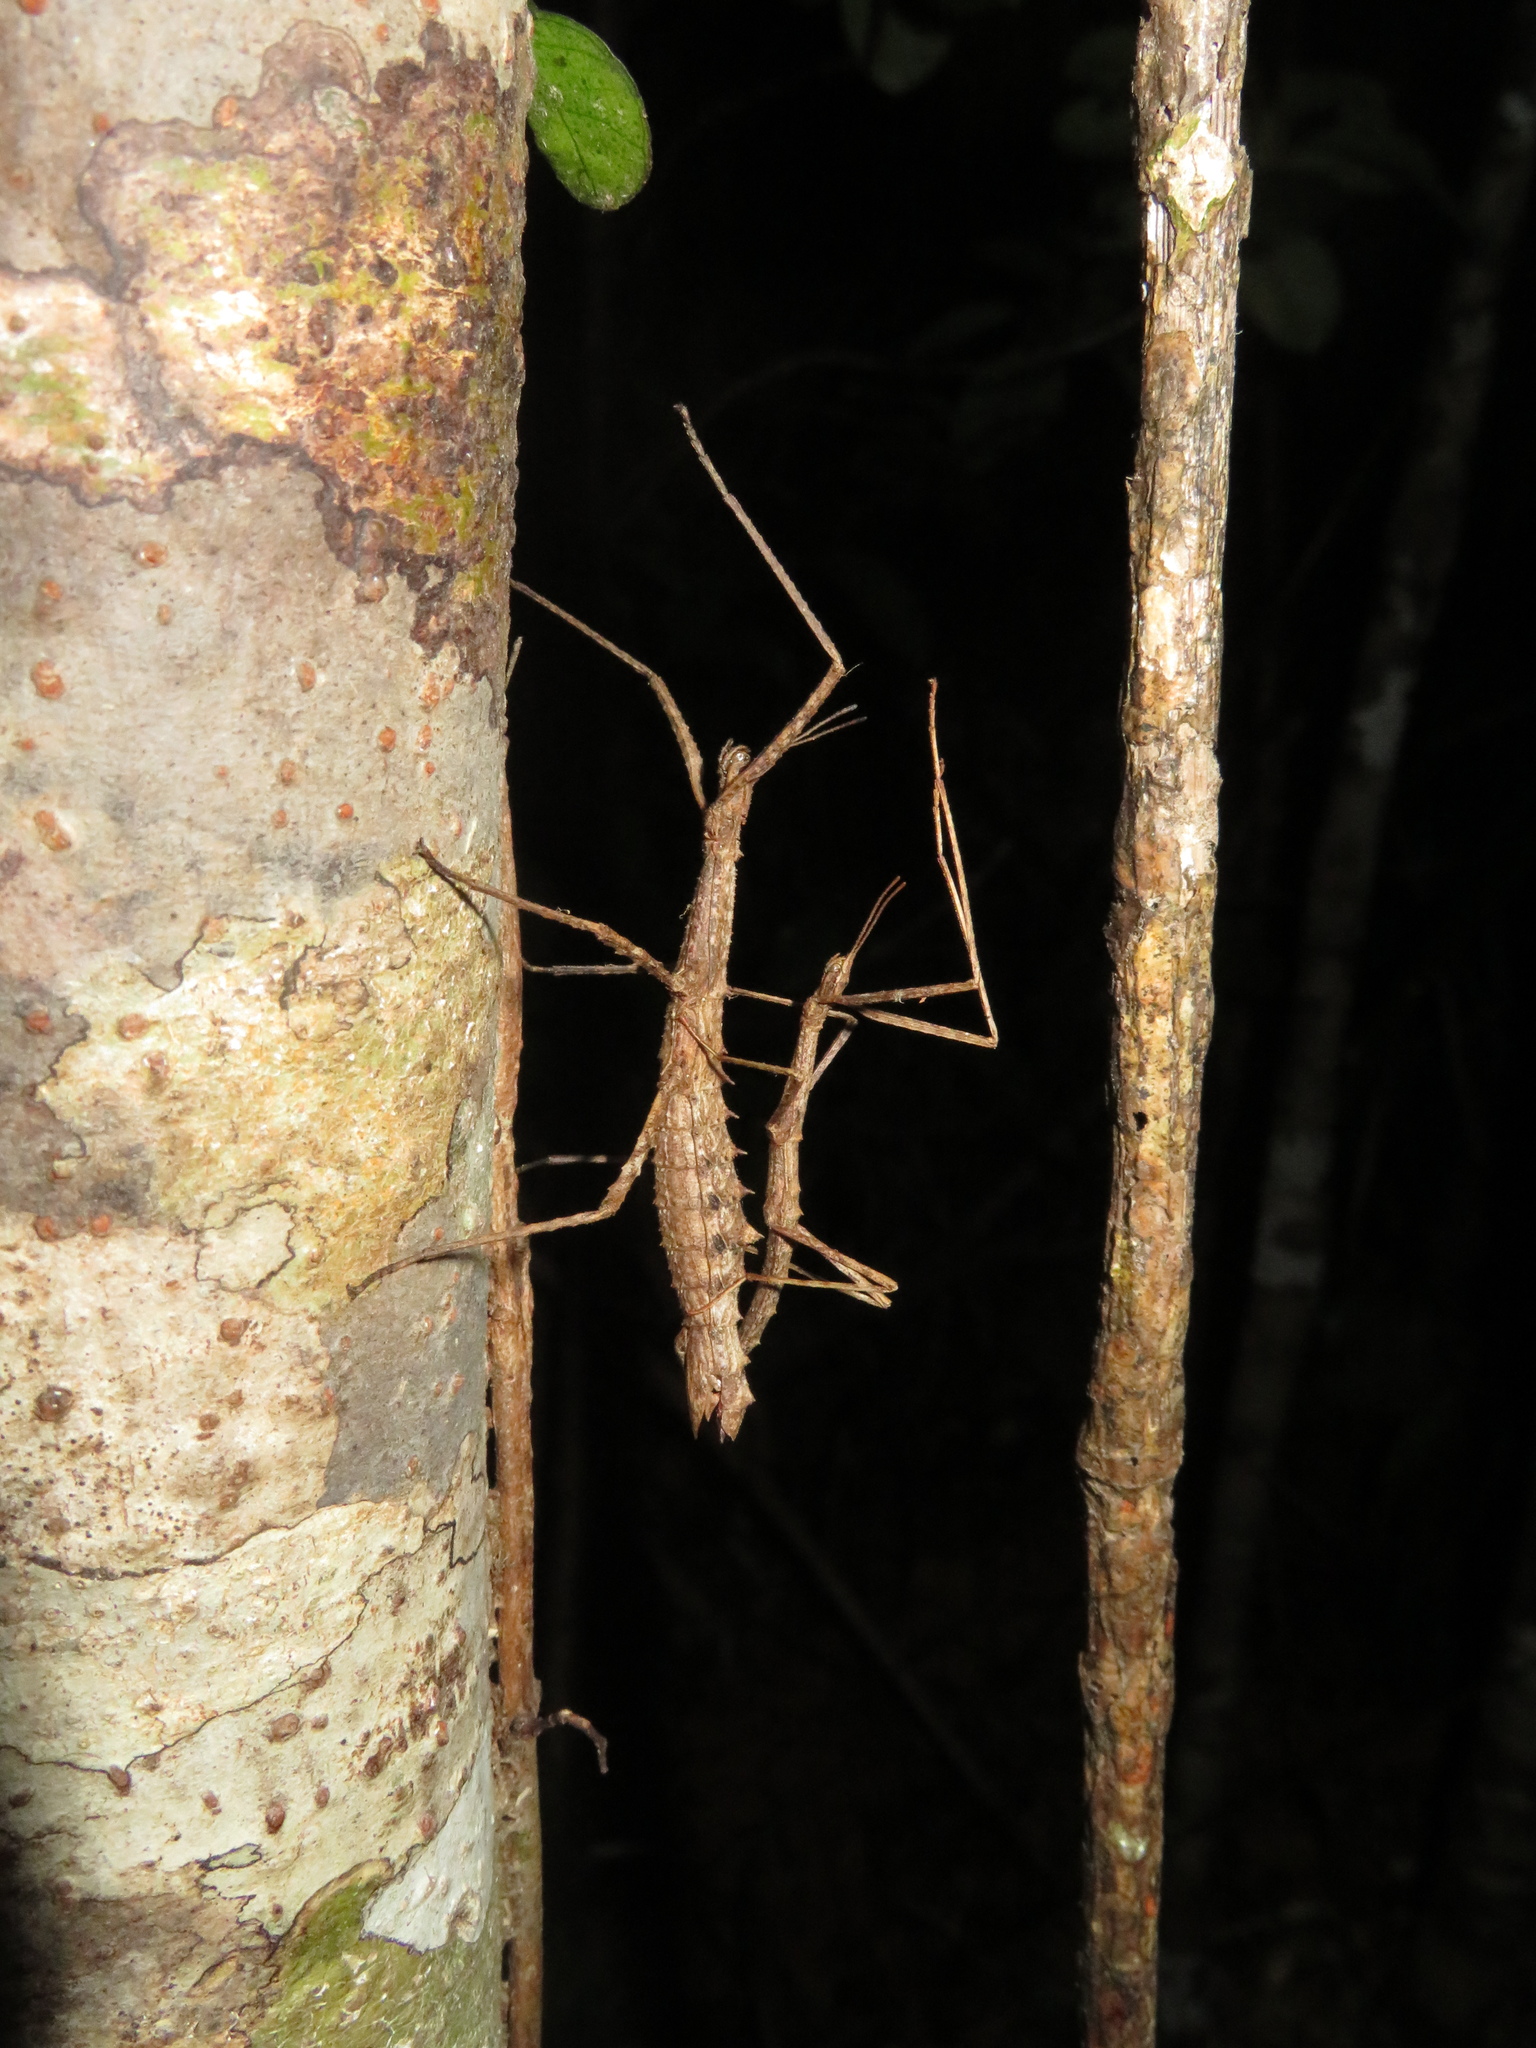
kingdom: Animalia
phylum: Arthropoda
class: Insecta
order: Phasmida
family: Phasmatidae
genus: Spinotectarchus
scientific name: Spinotectarchus acornutus
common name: The spiny ridge-backed stick insect
